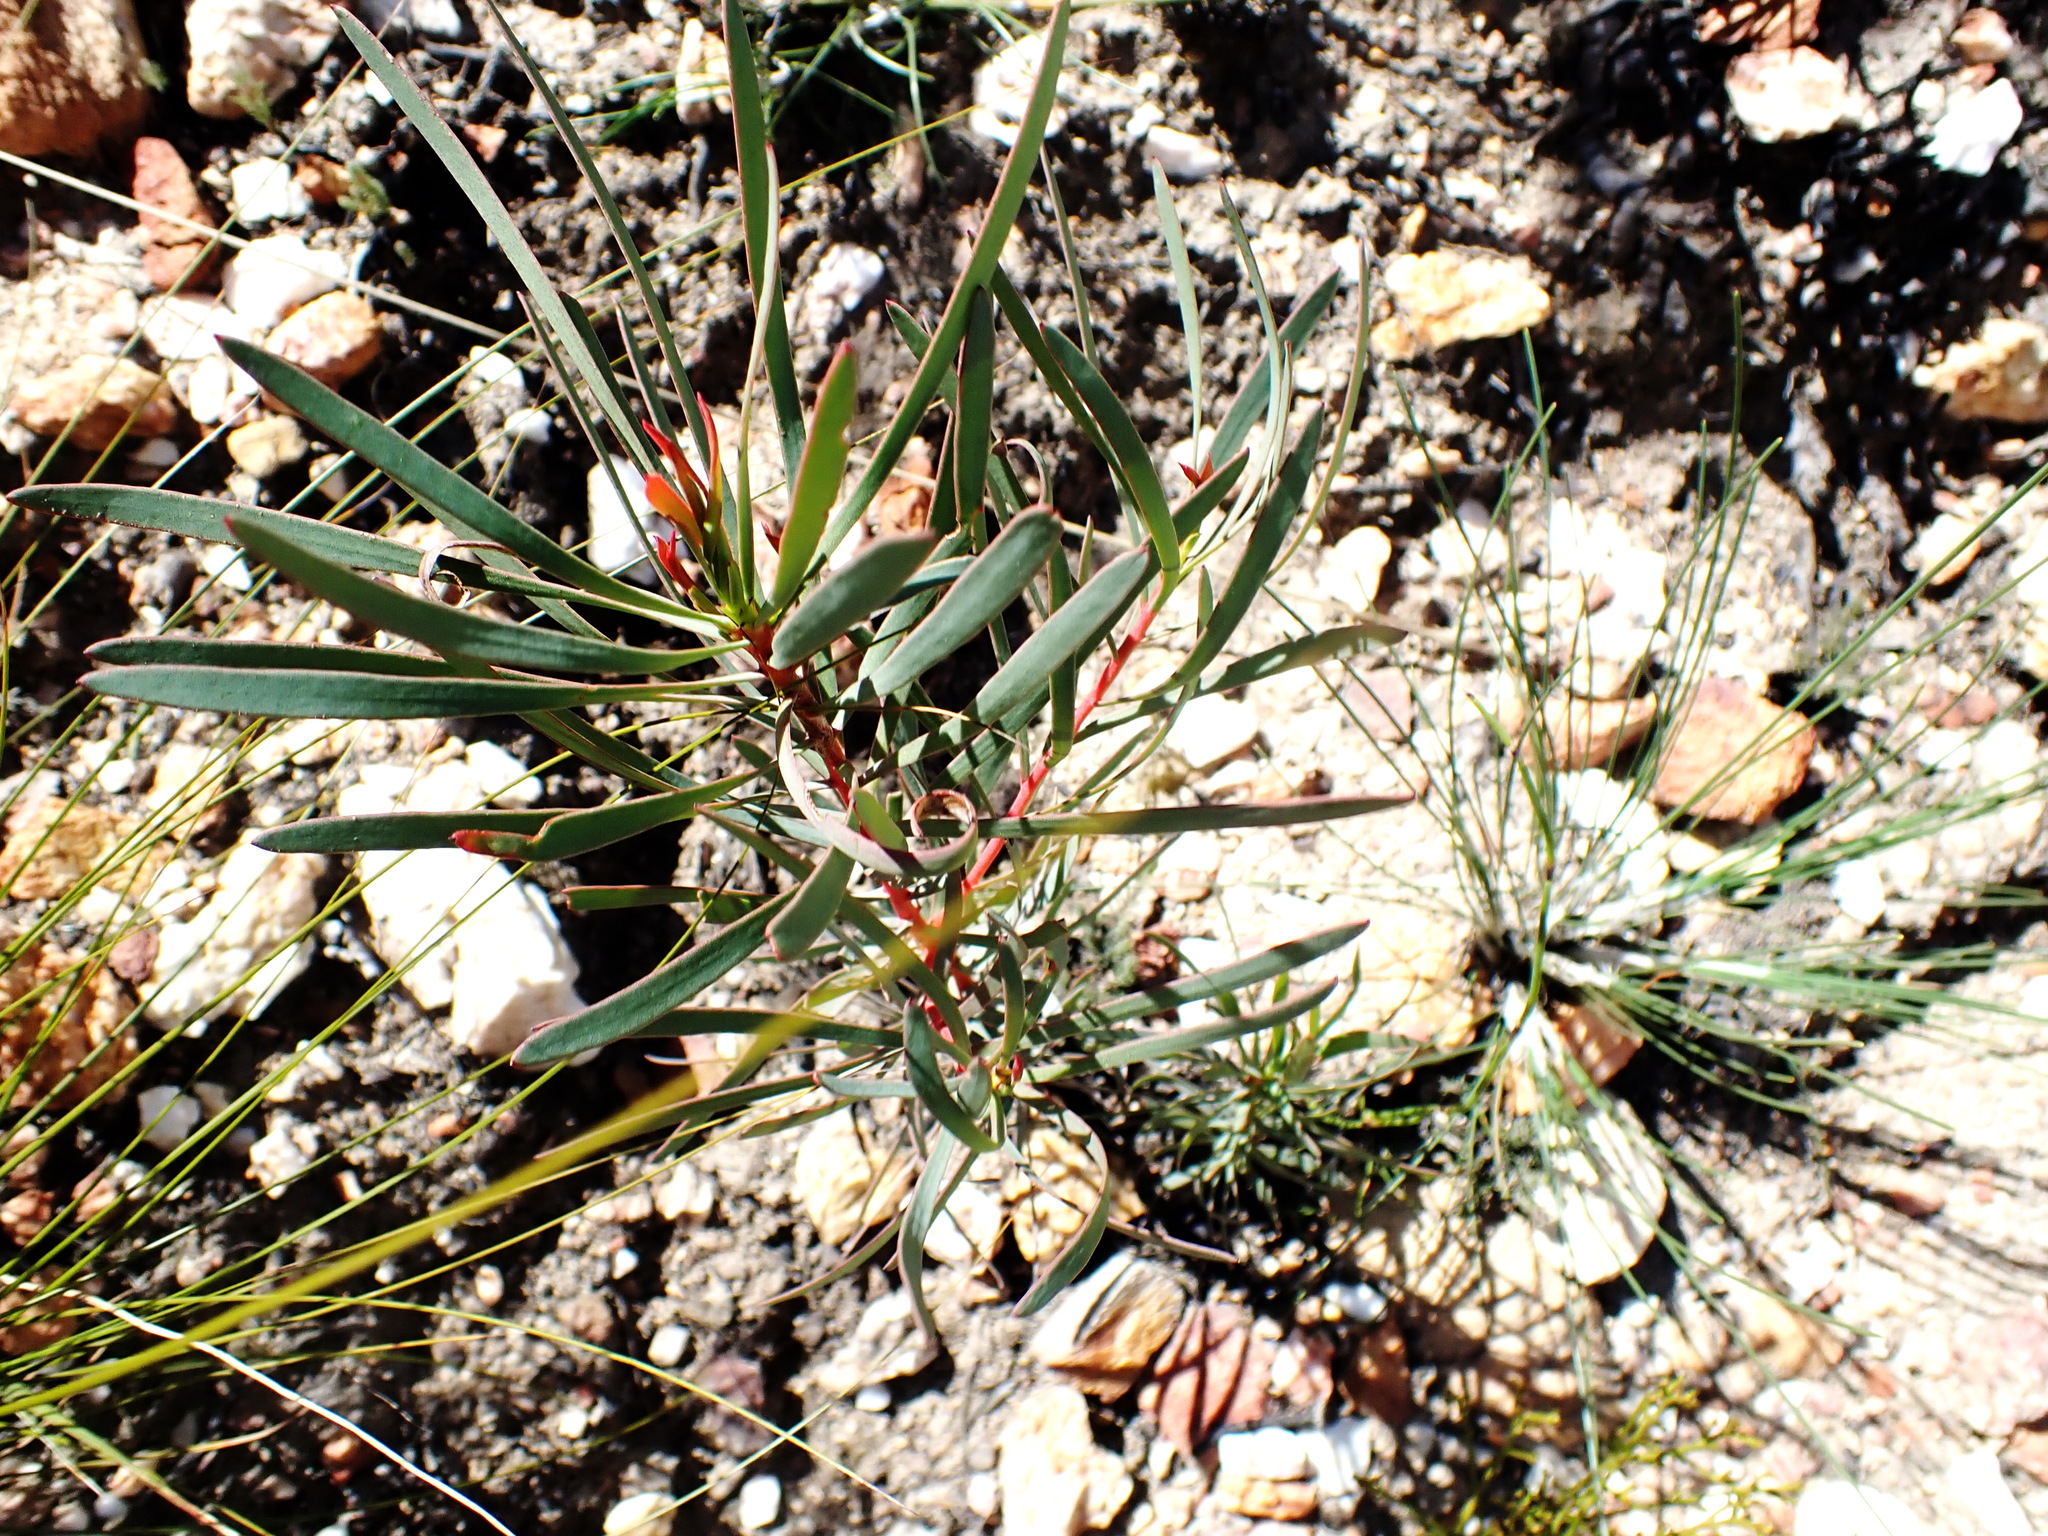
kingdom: Plantae
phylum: Tracheophyta
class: Magnoliopsida
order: Proteales
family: Proteaceae
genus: Protea
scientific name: Protea repens
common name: Sugarbush
